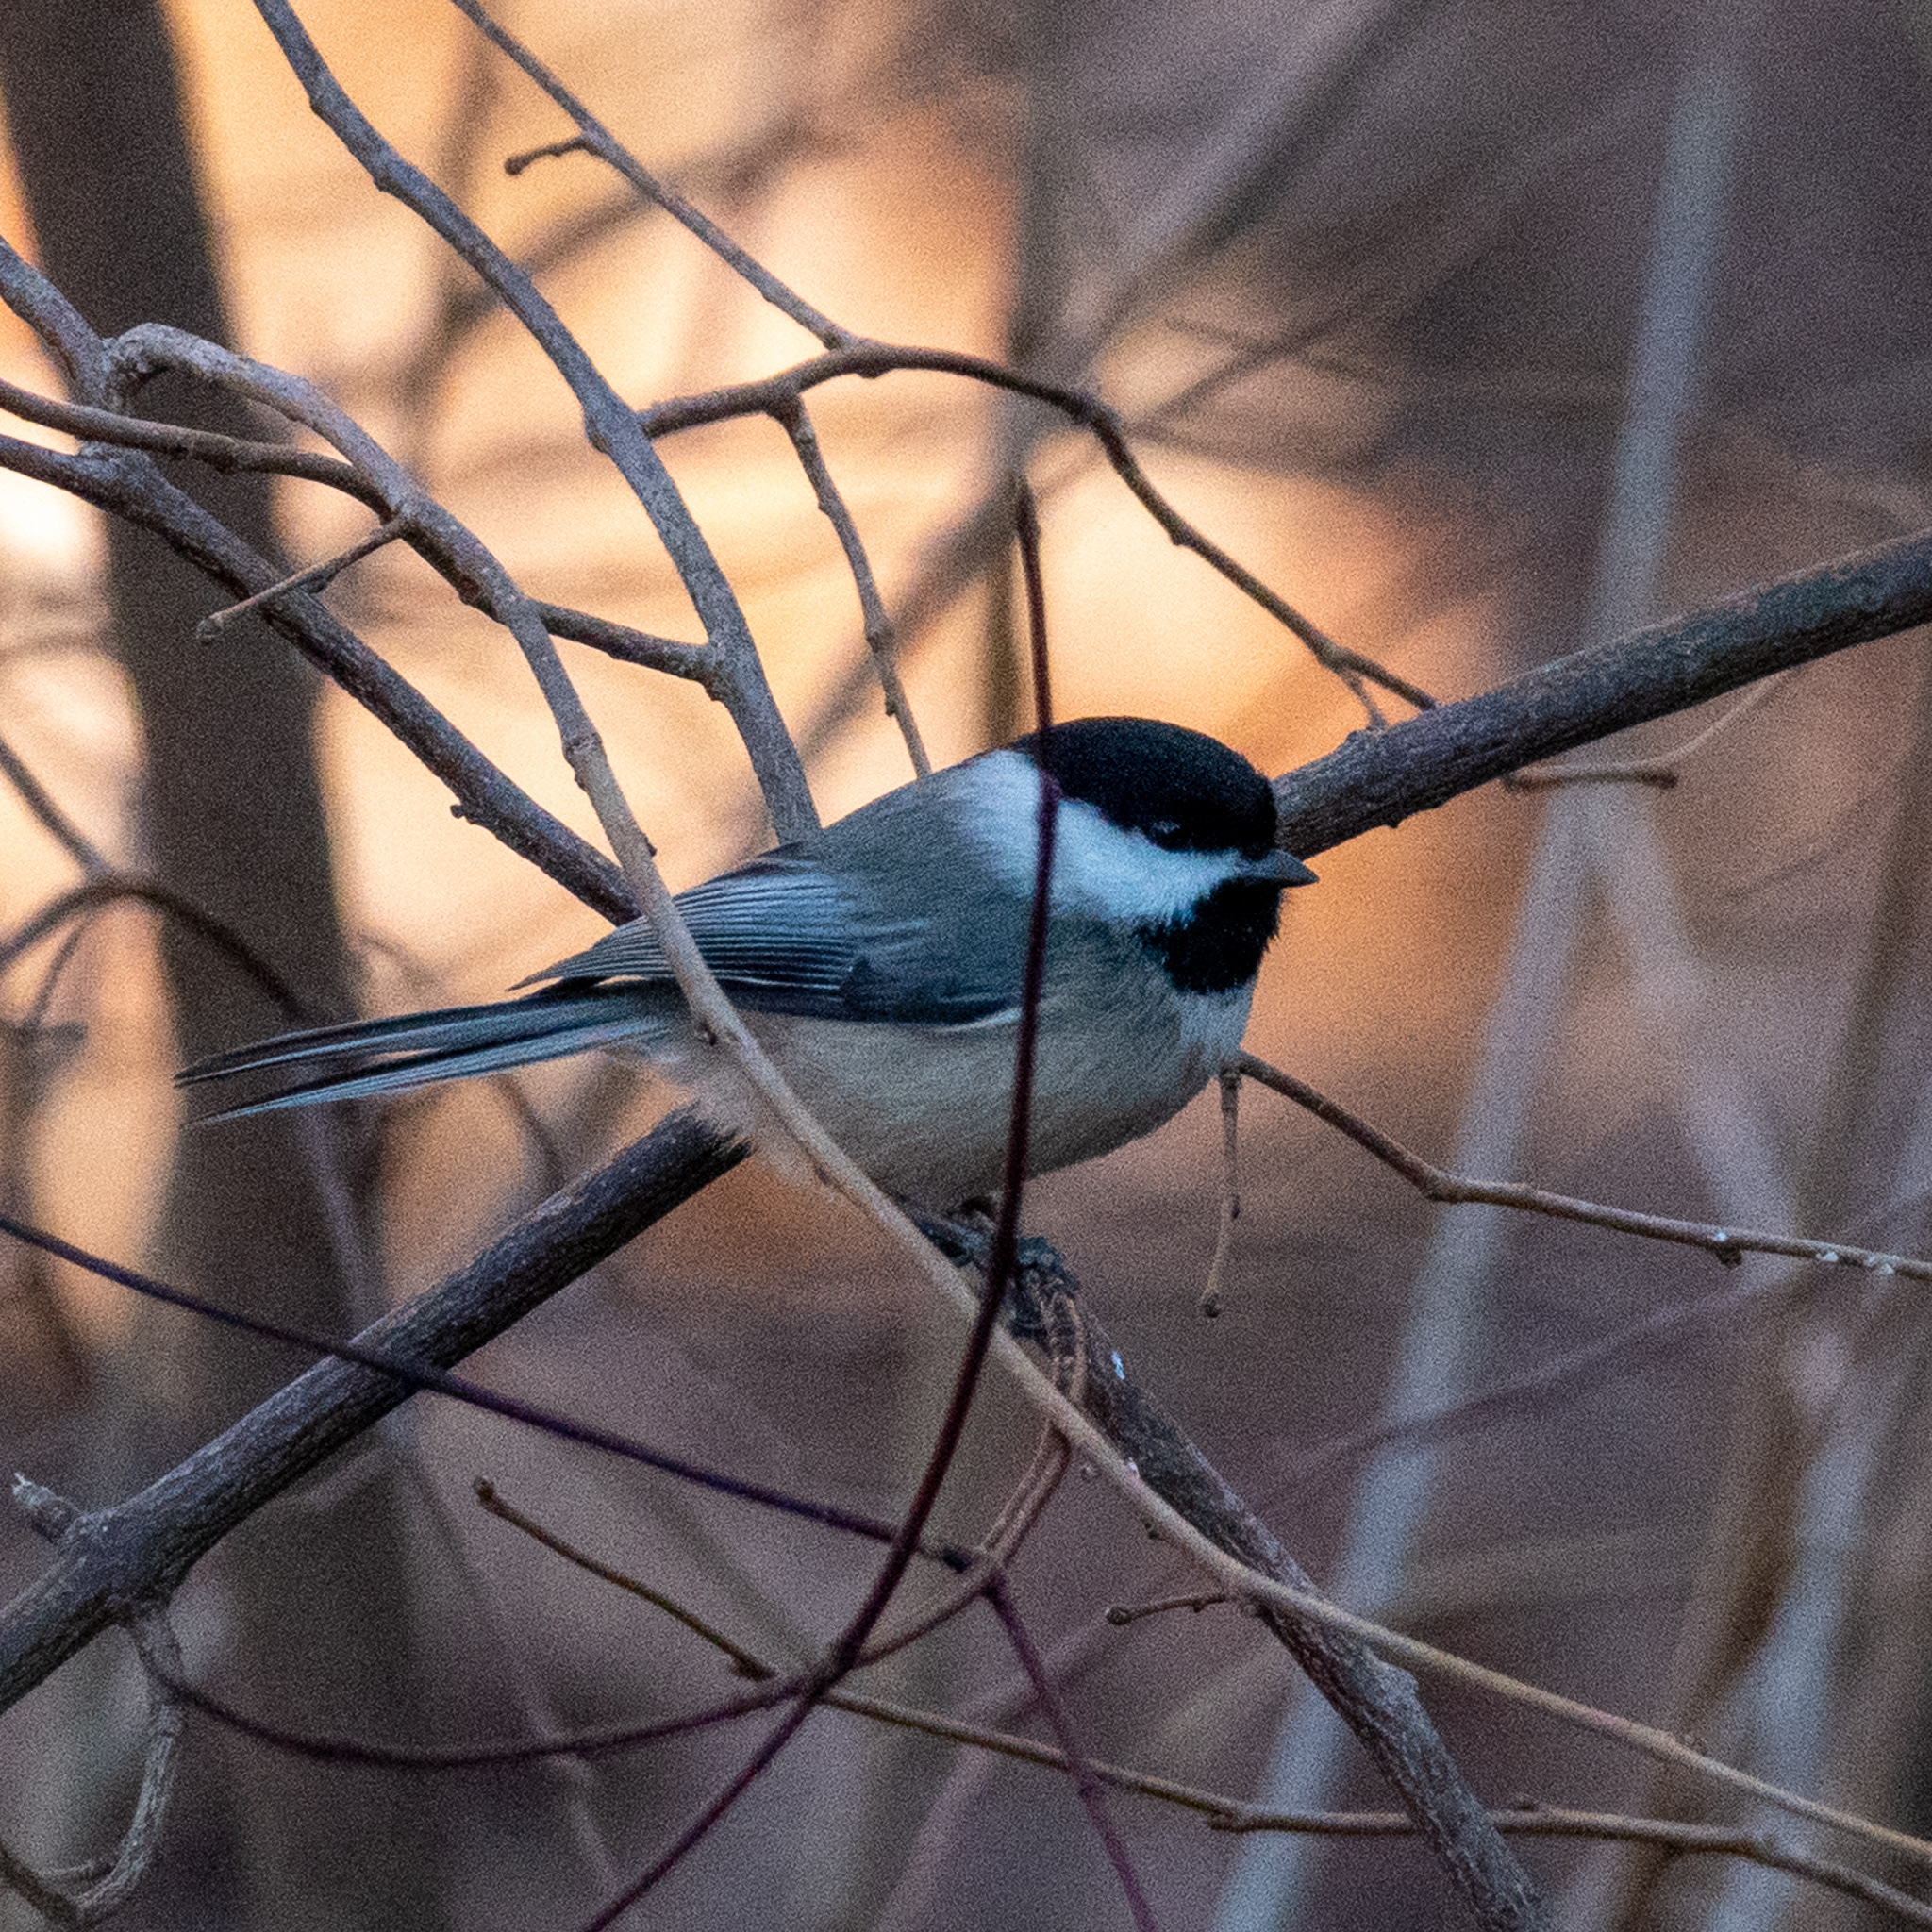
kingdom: Animalia
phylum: Chordata
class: Aves
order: Passeriformes
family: Paridae
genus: Poecile
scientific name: Poecile carolinensis
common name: Carolina chickadee
